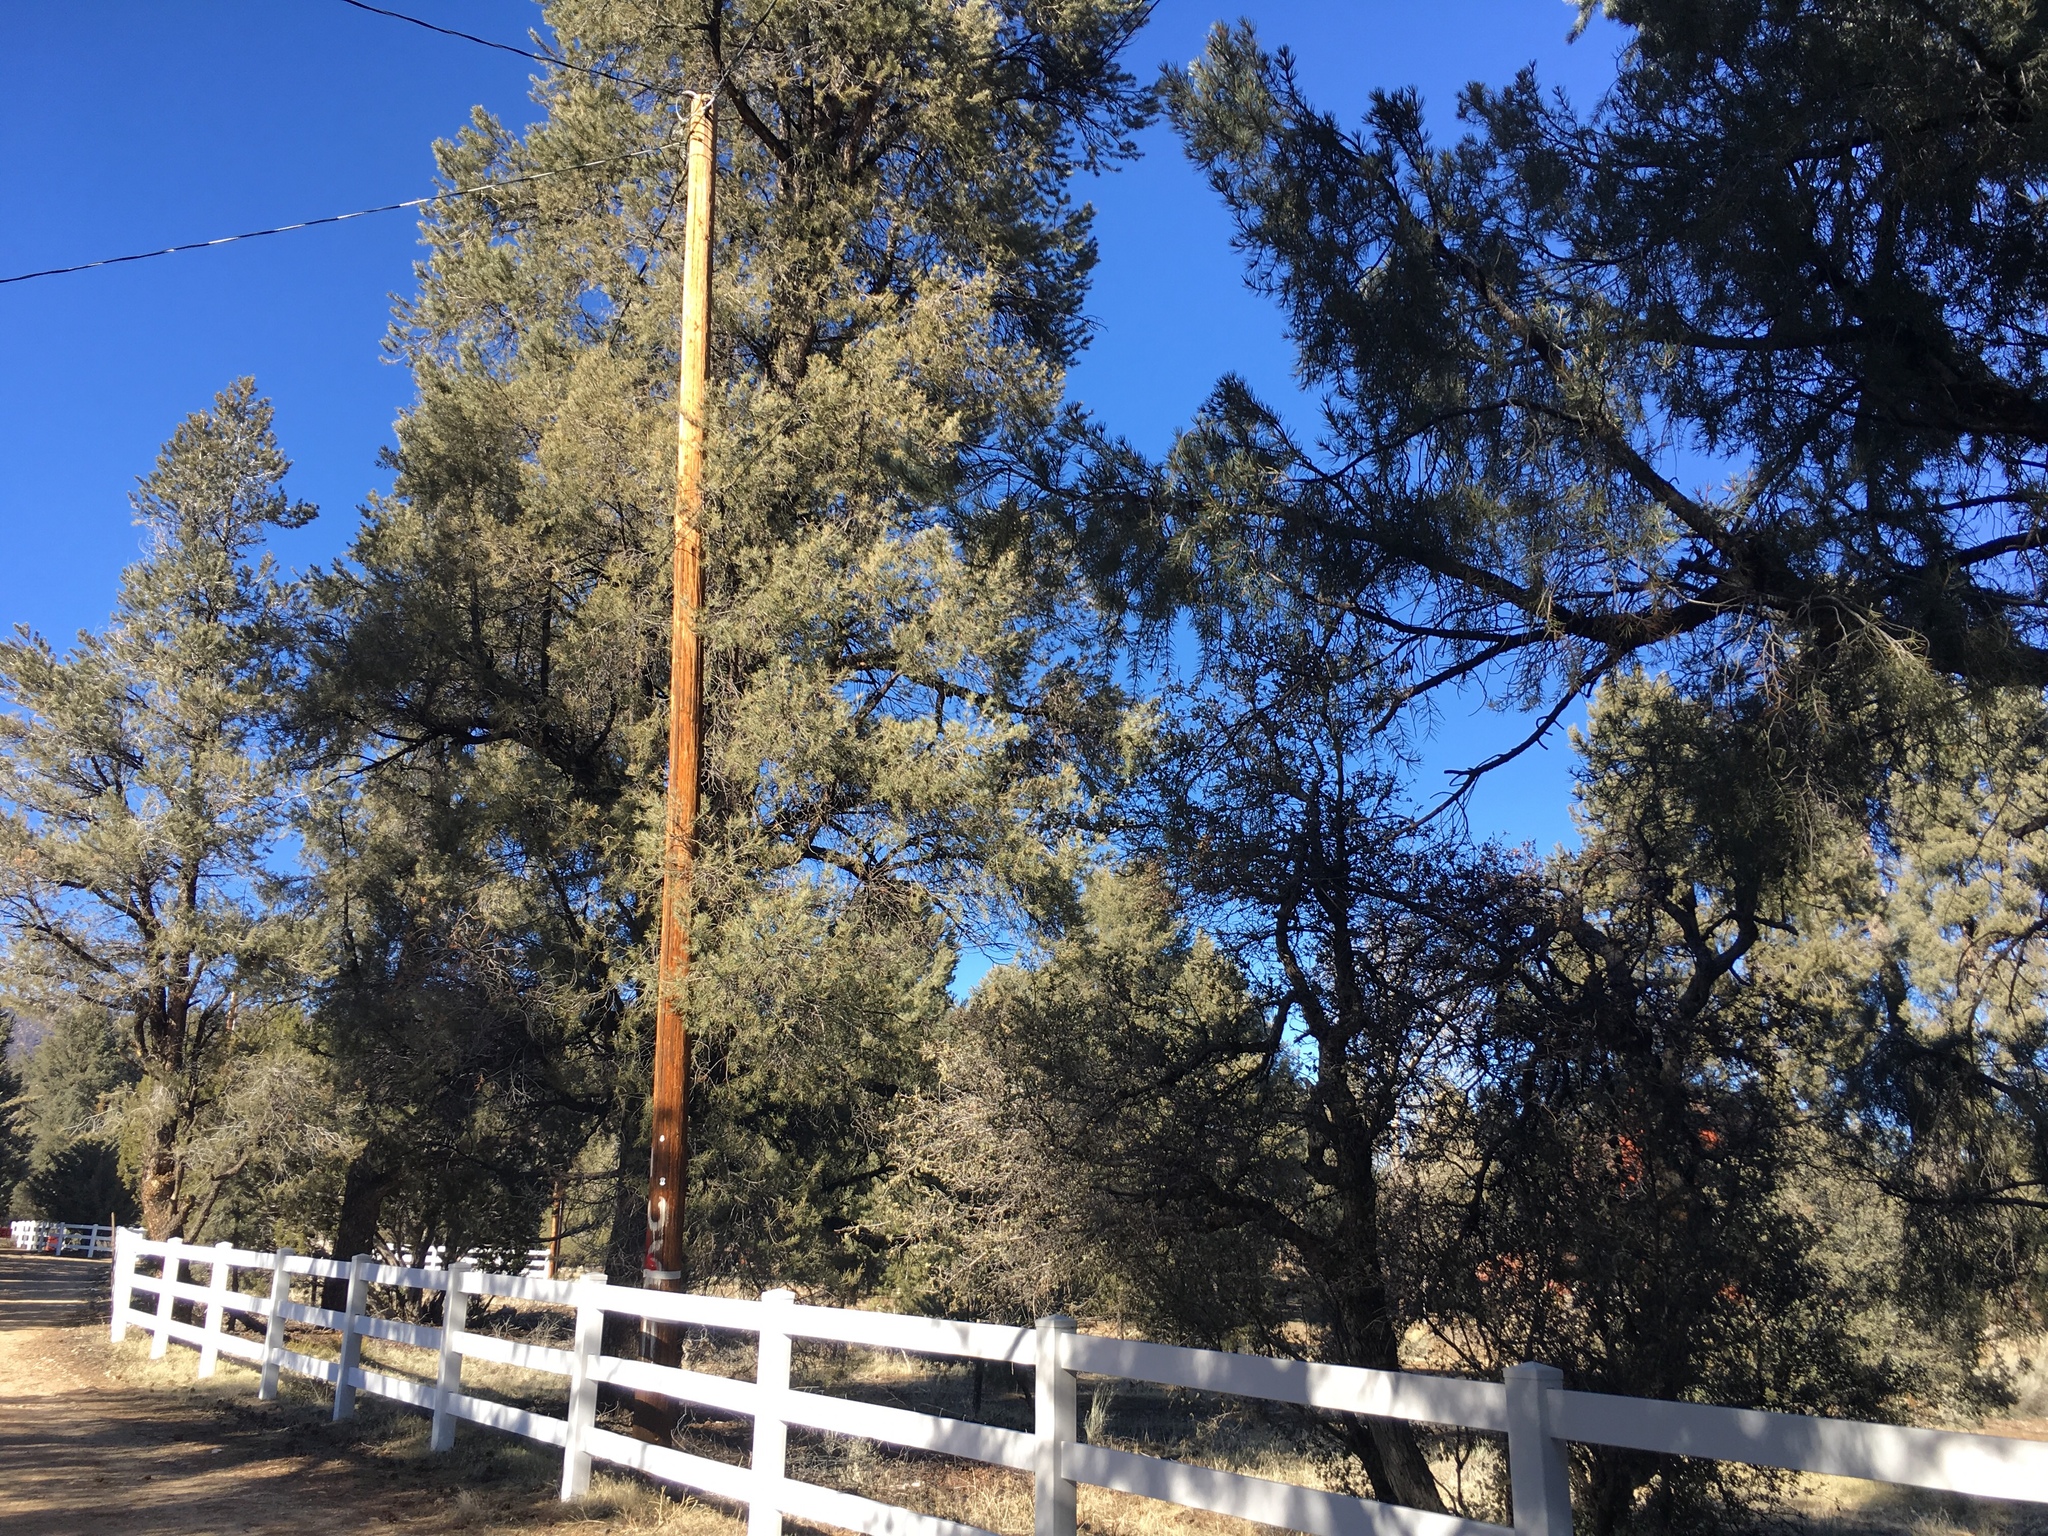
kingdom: Plantae
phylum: Tracheophyta
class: Pinopsida
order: Pinales
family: Pinaceae
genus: Pinus
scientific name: Pinus monophylla
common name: One-leaved nut pine
